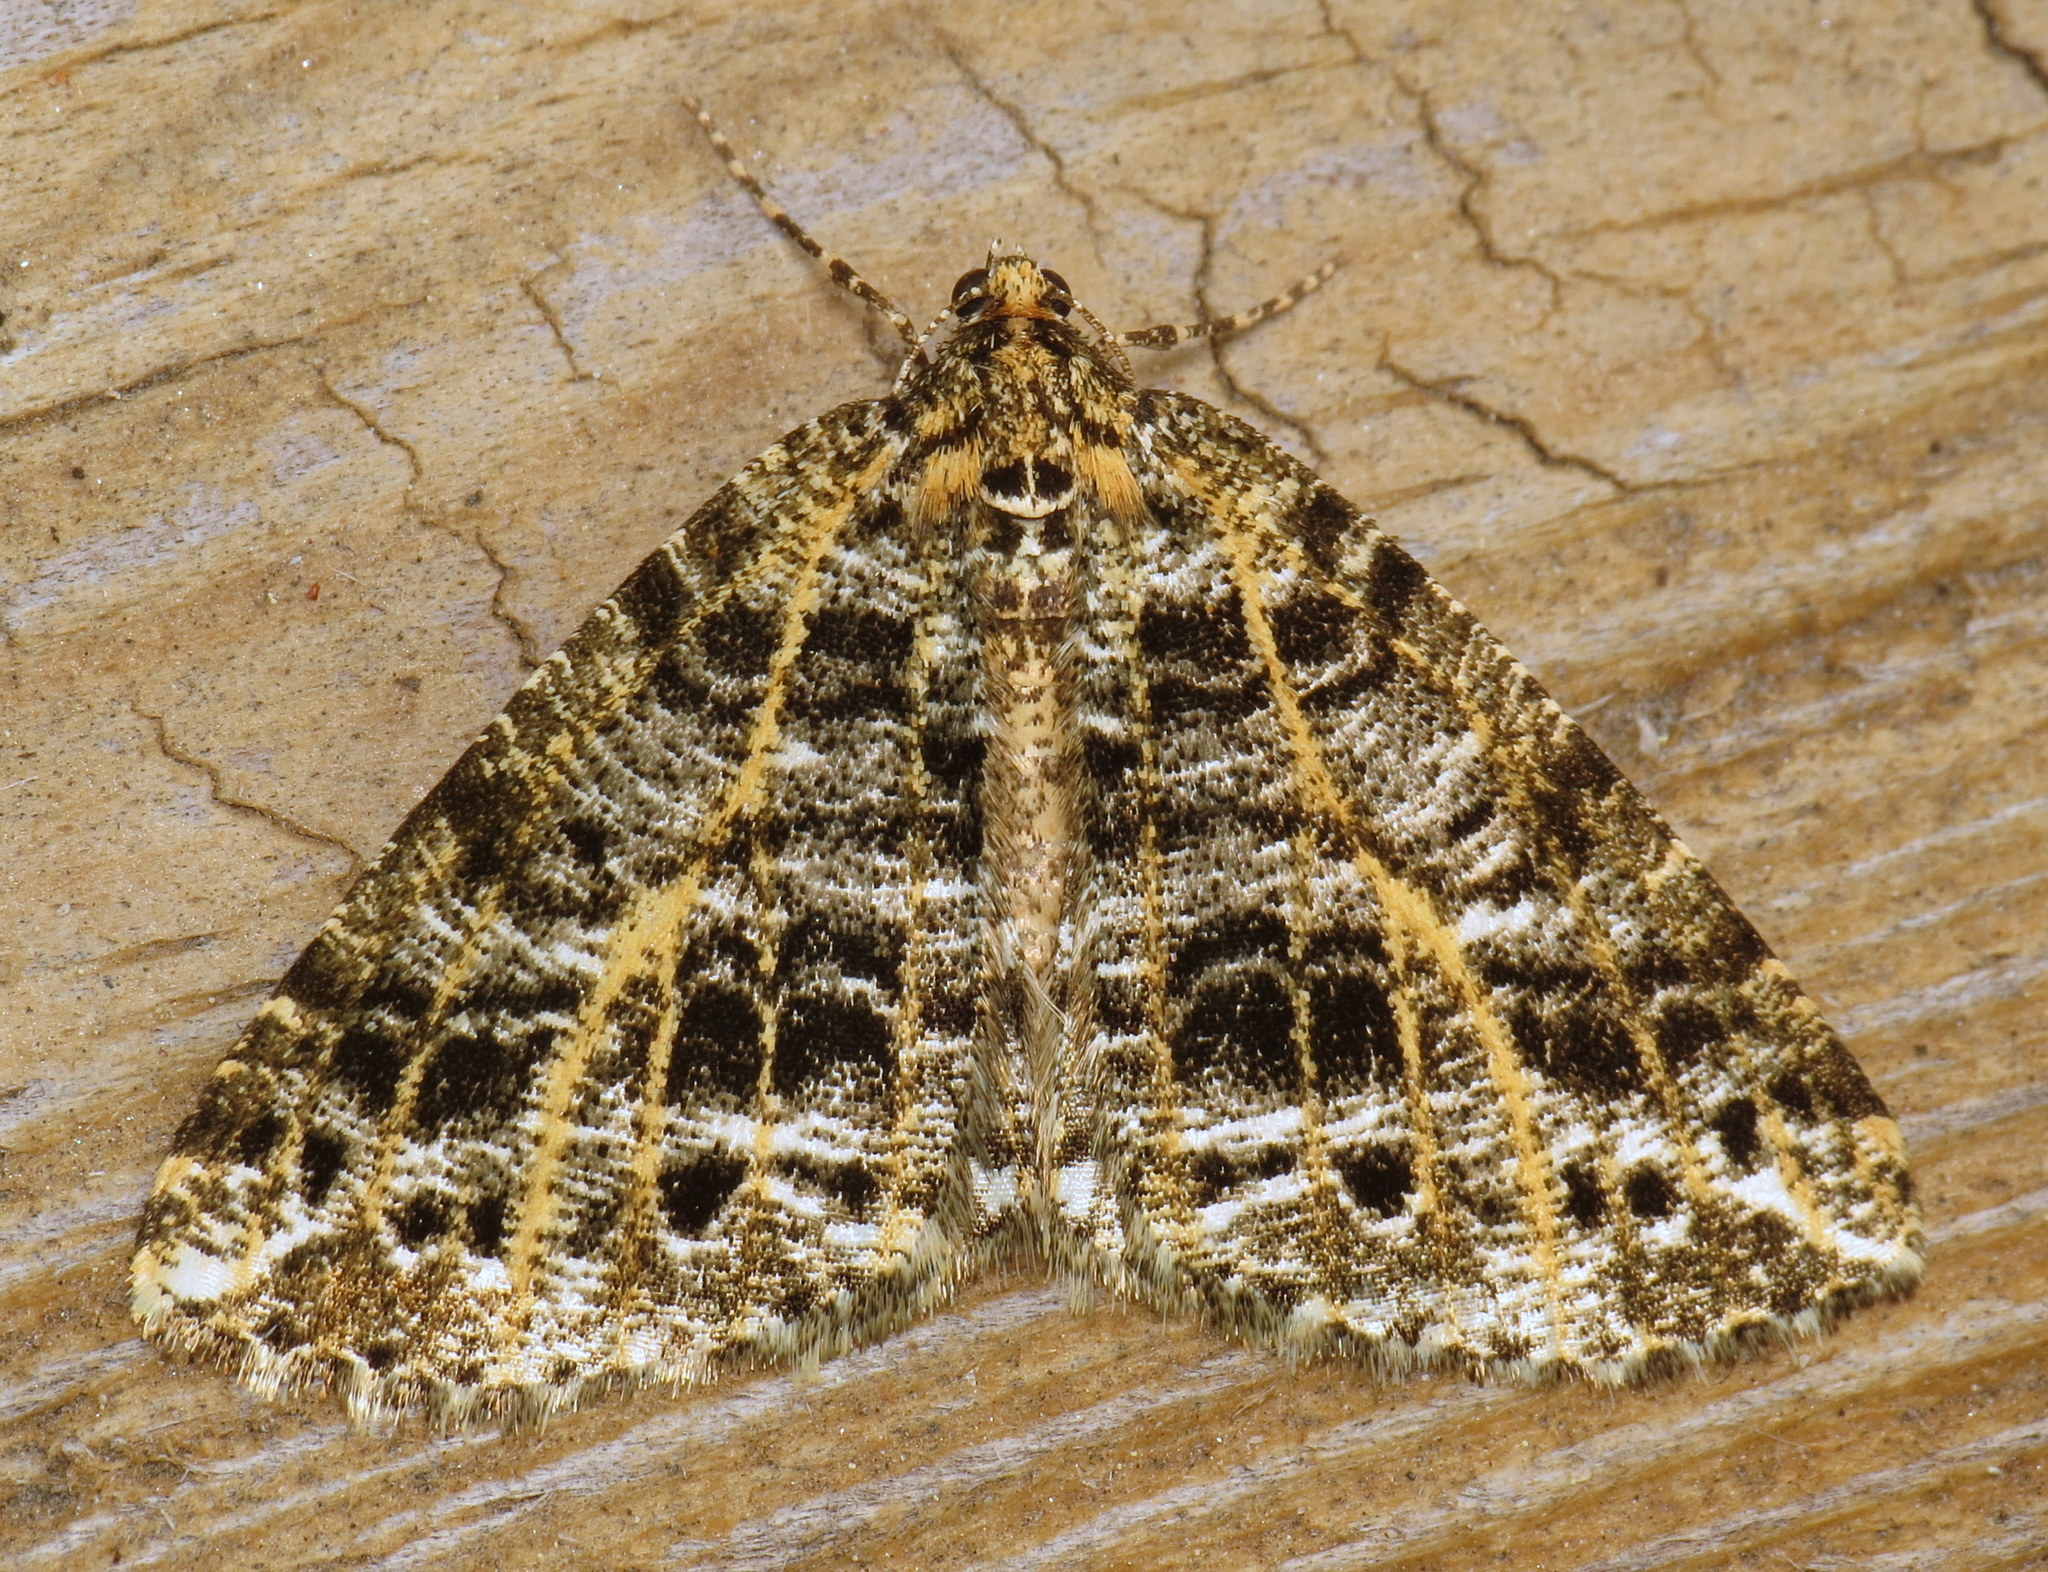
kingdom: Animalia
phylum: Arthropoda
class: Insecta
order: Lepidoptera
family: Geometridae
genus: Orthofidonia
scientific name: Orthofidonia flavivenata
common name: Yellow-veined geometer moth
